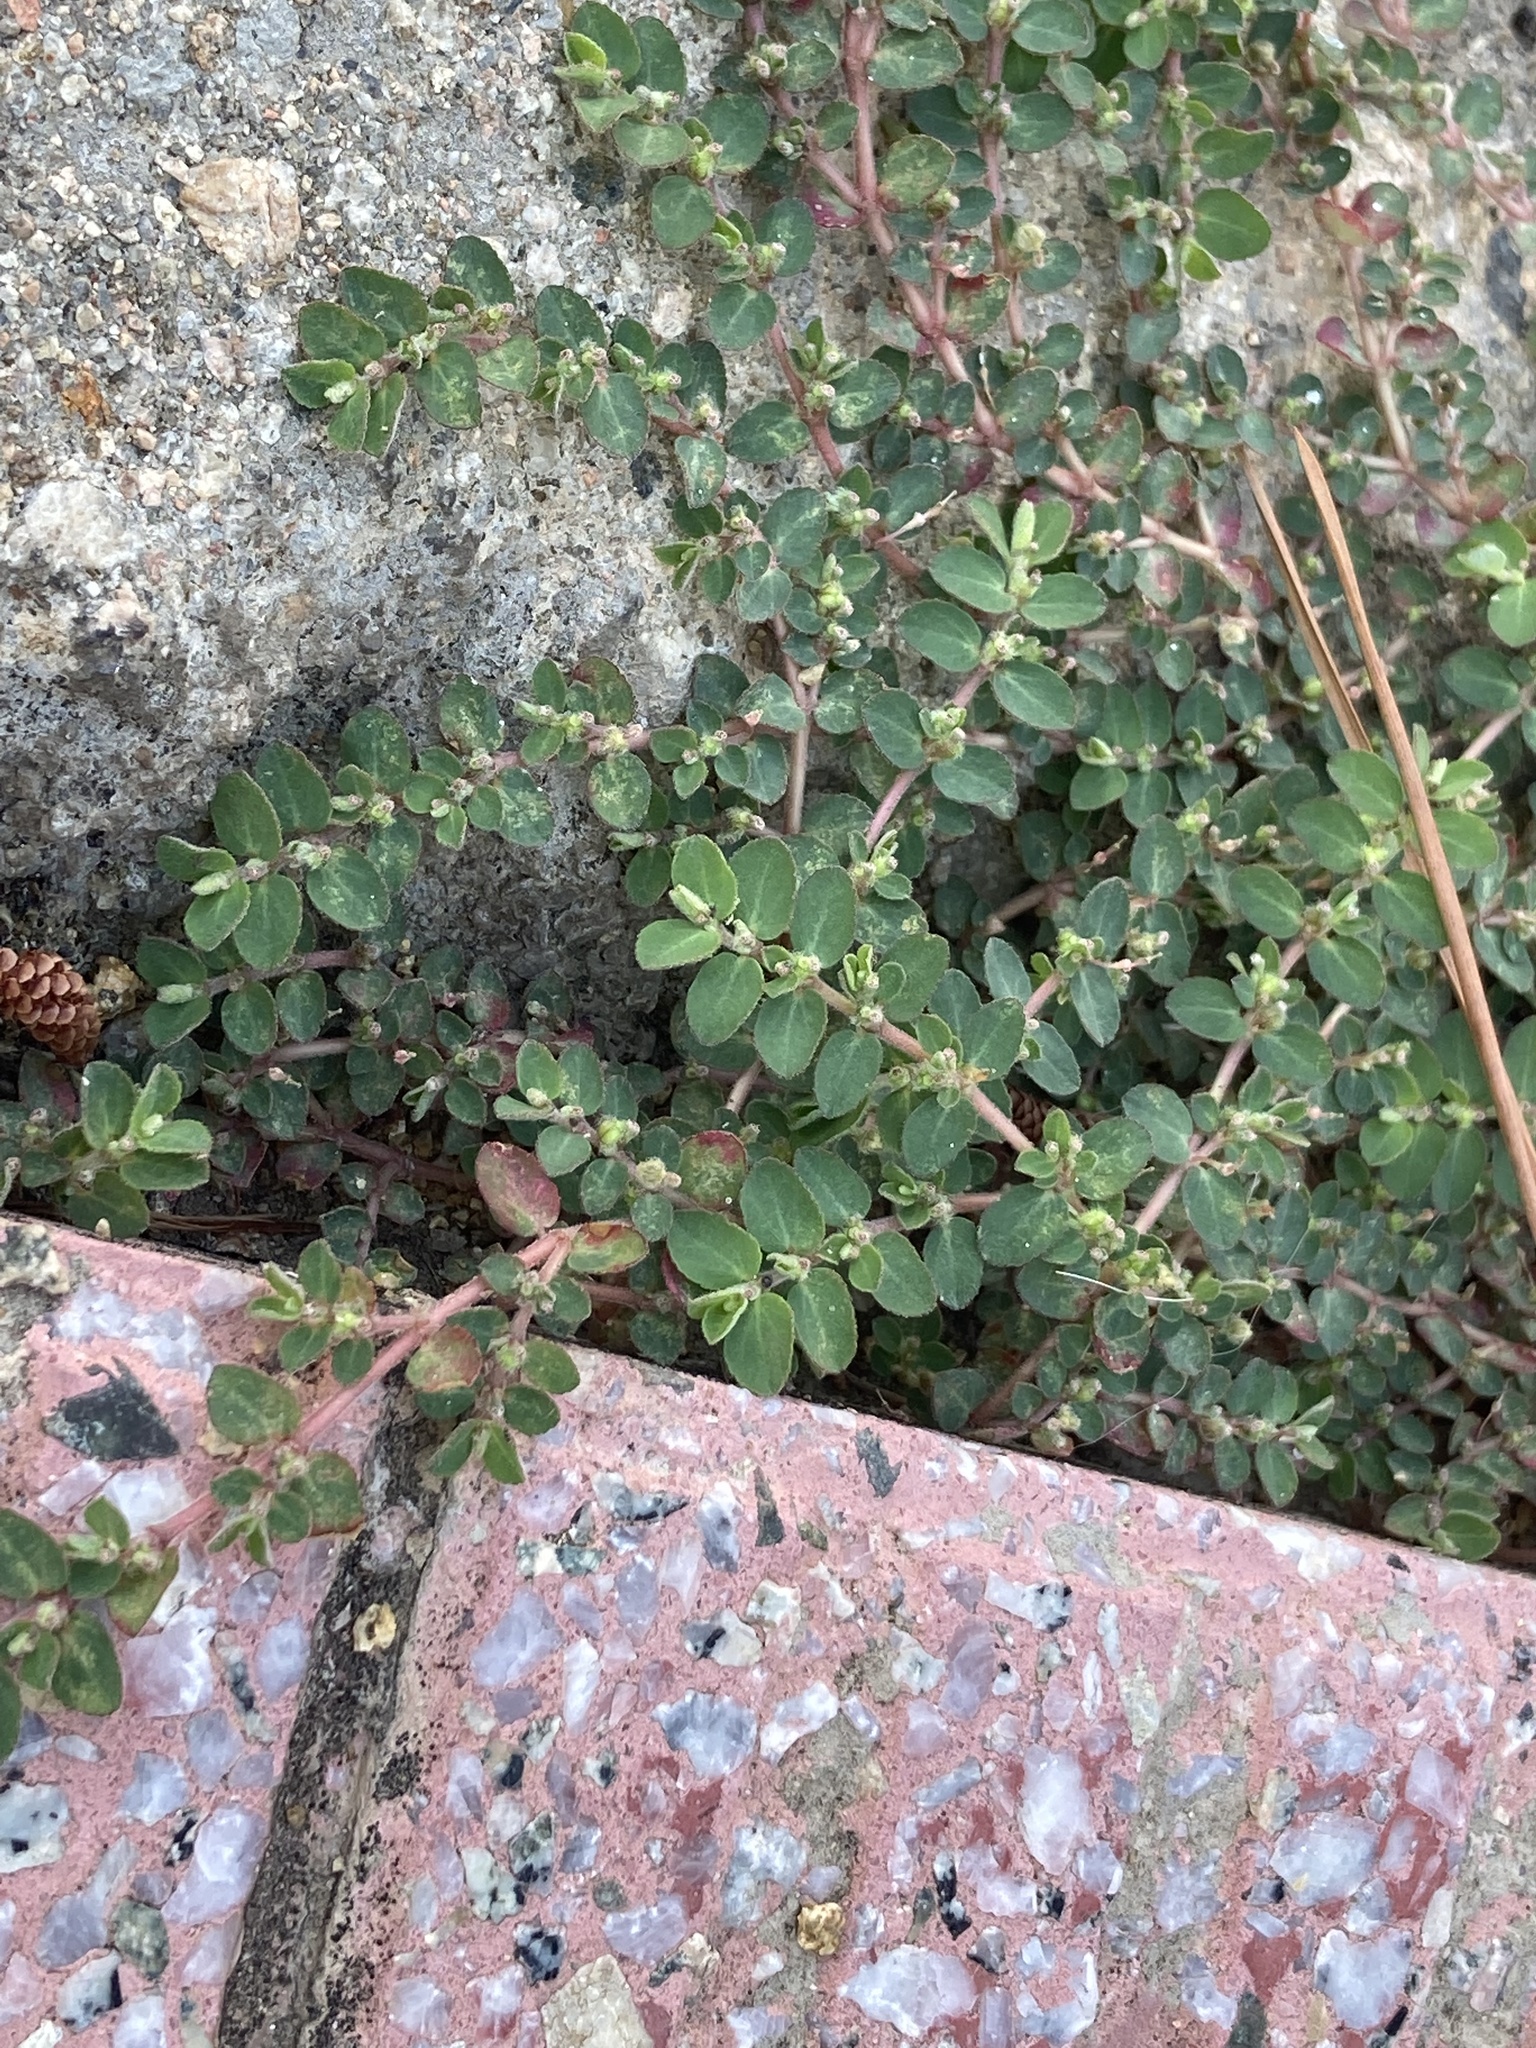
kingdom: Plantae
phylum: Tracheophyta
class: Magnoliopsida
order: Malpighiales
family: Euphorbiaceae
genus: Euphorbia
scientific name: Euphorbia prostrata
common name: Prostrate sandmat
